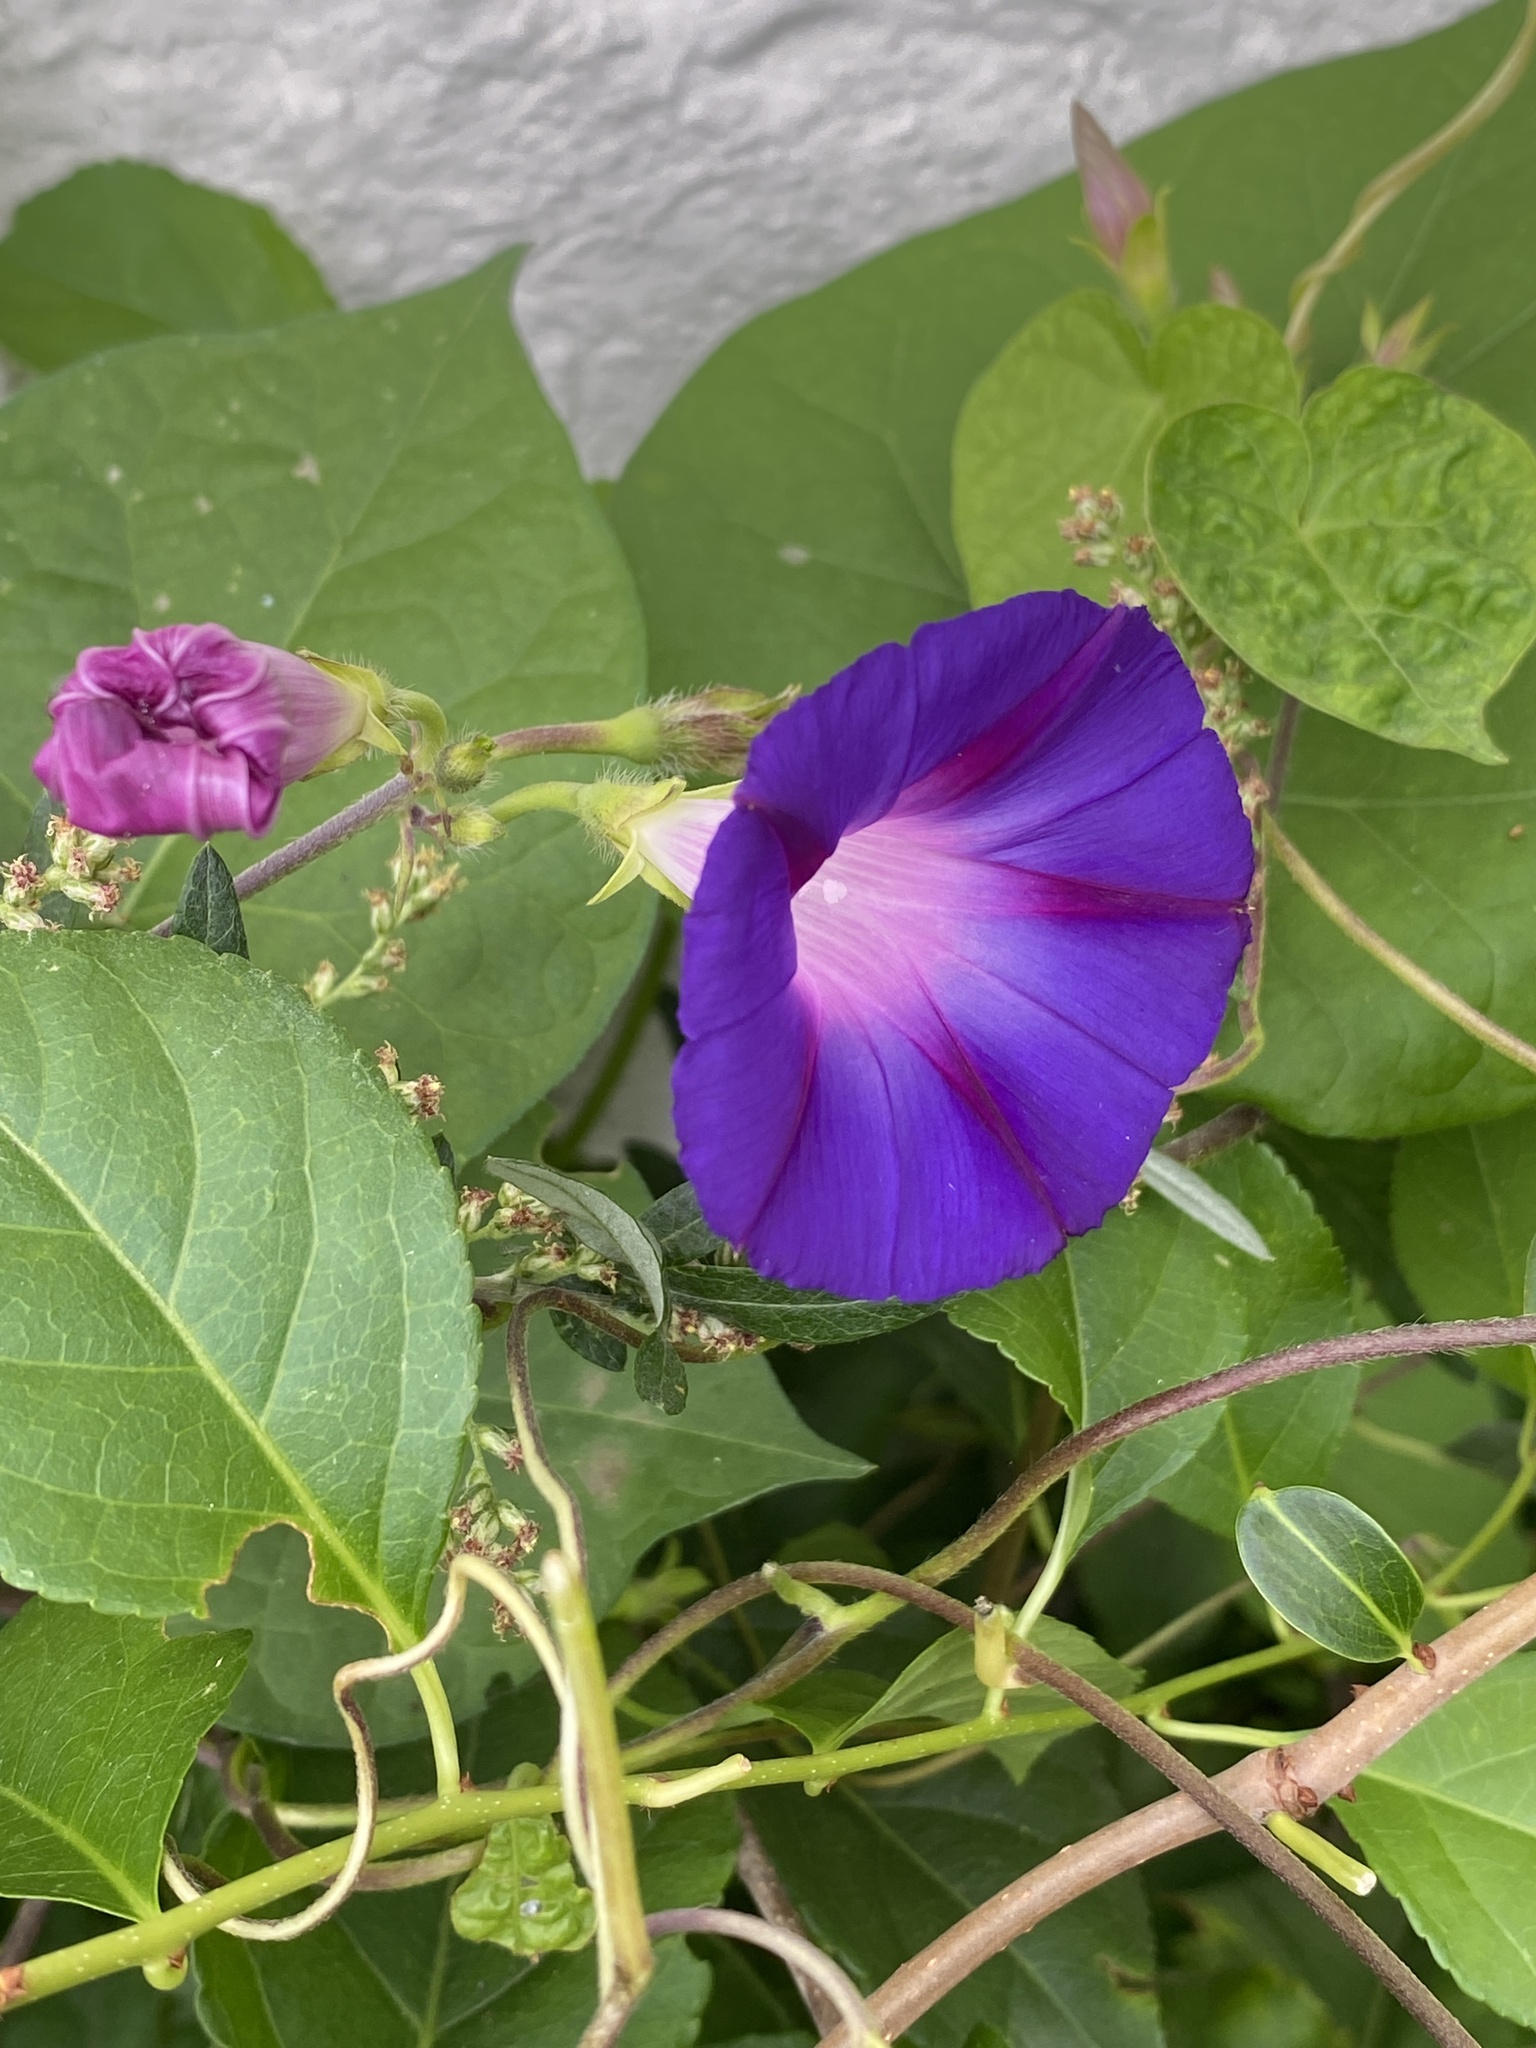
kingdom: Plantae
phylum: Tracheophyta
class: Magnoliopsida
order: Solanales
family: Convolvulaceae
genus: Ipomoea
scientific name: Ipomoea purpurea
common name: Common morning-glory
